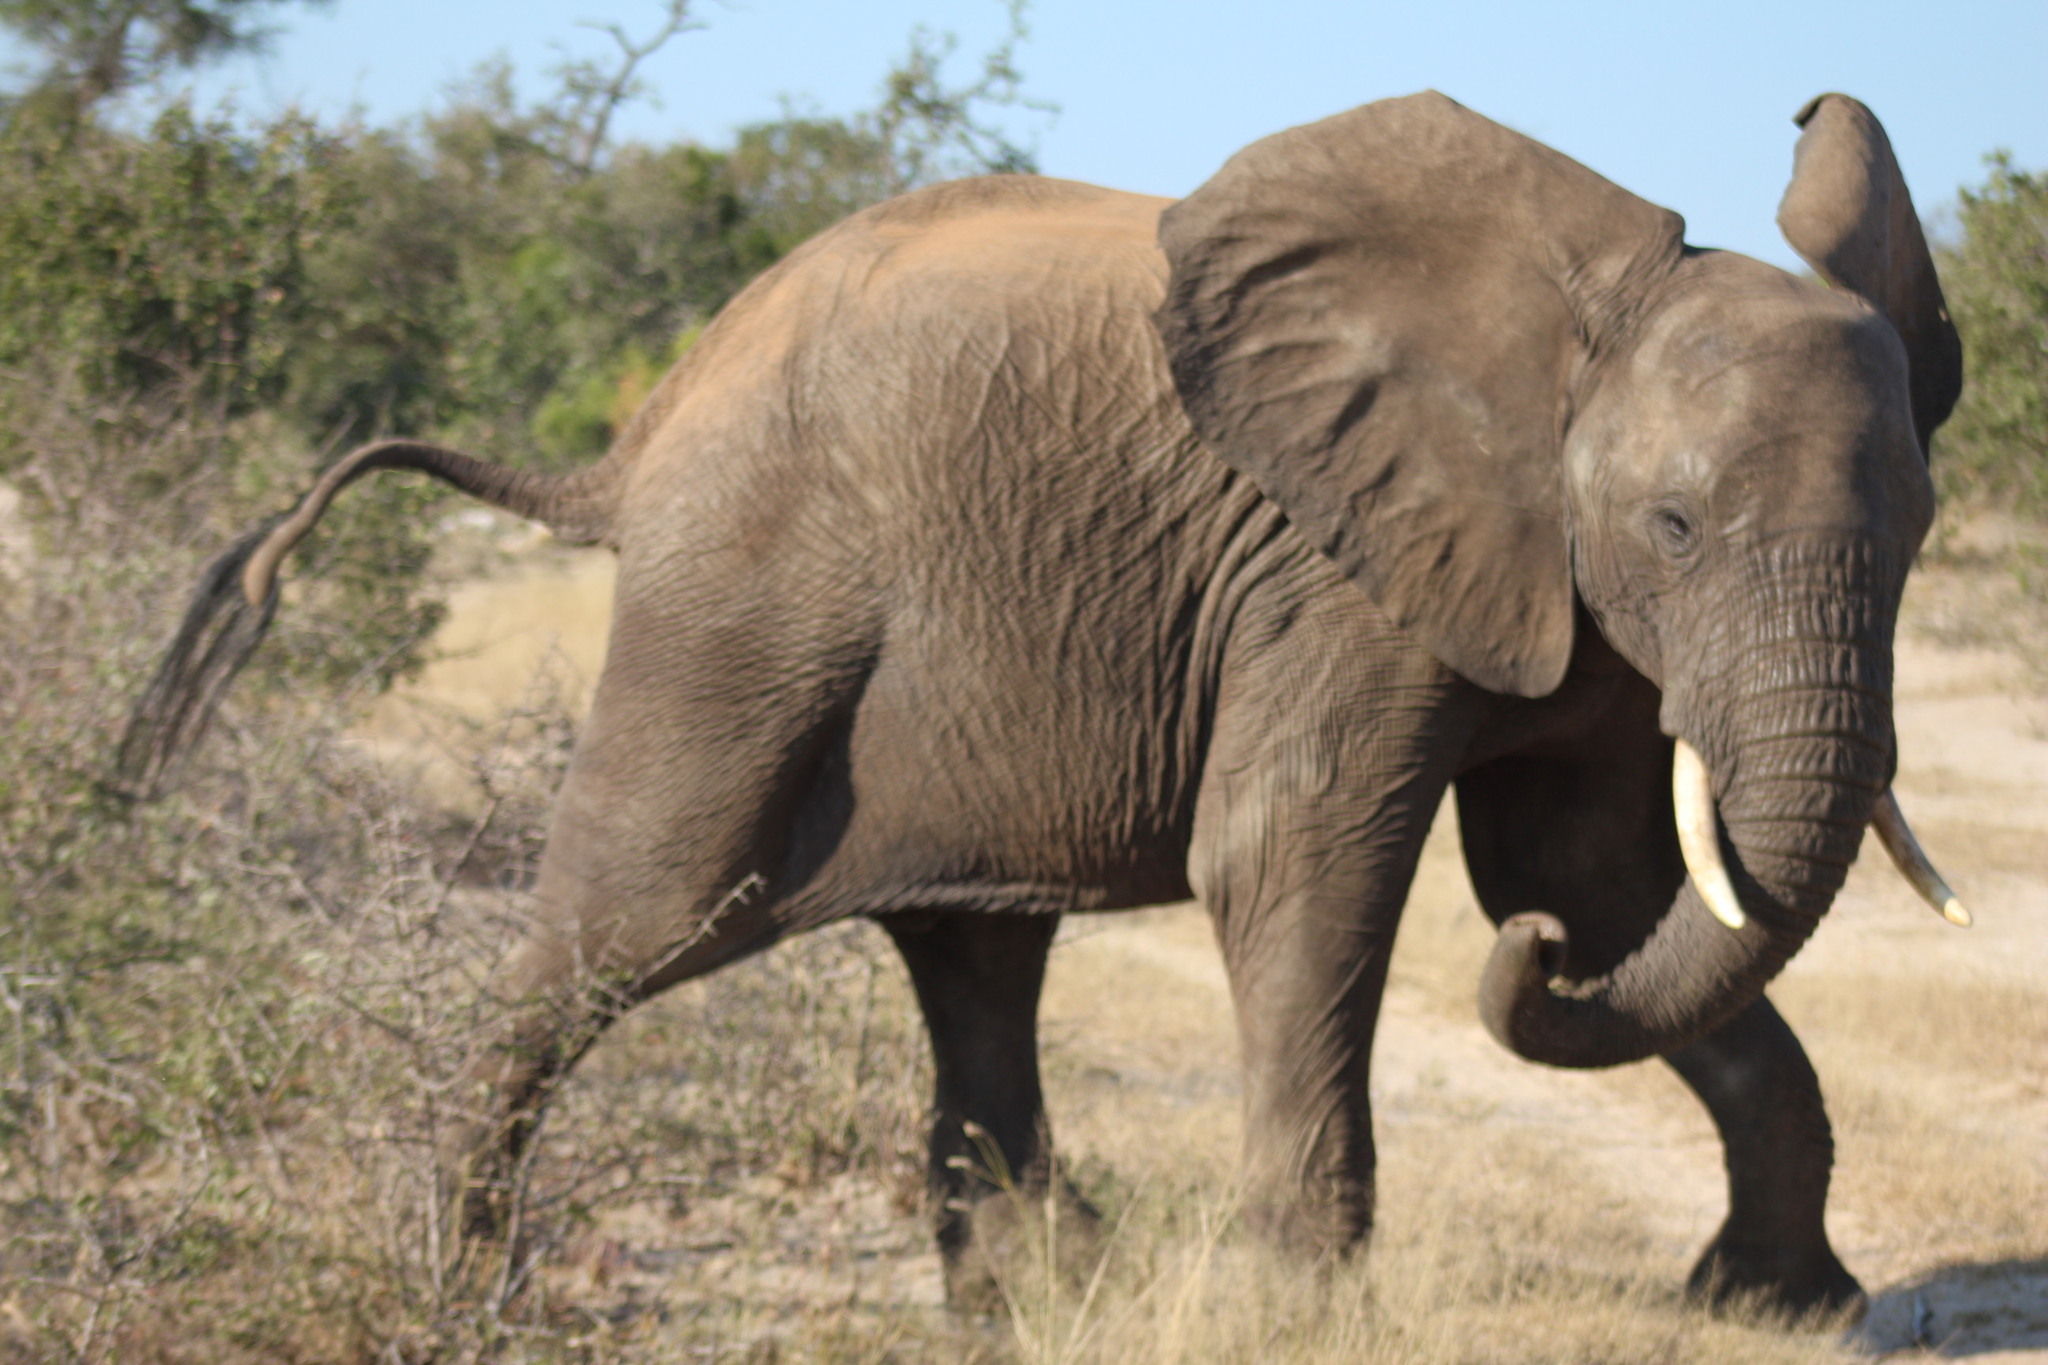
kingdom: Animalia
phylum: Chordata
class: Mammalia
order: Proboscidea
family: Elephantidae
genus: Loxodonta
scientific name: Loxodonta africana
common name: African elephant
